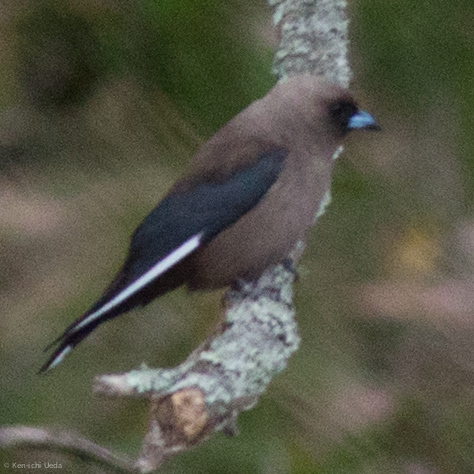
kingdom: Animalia
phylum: Chordata
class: Aves
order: Passeriformes
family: Artamidae
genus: Artamus
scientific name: Artamus cyanopterus
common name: Dusky woodswallow
